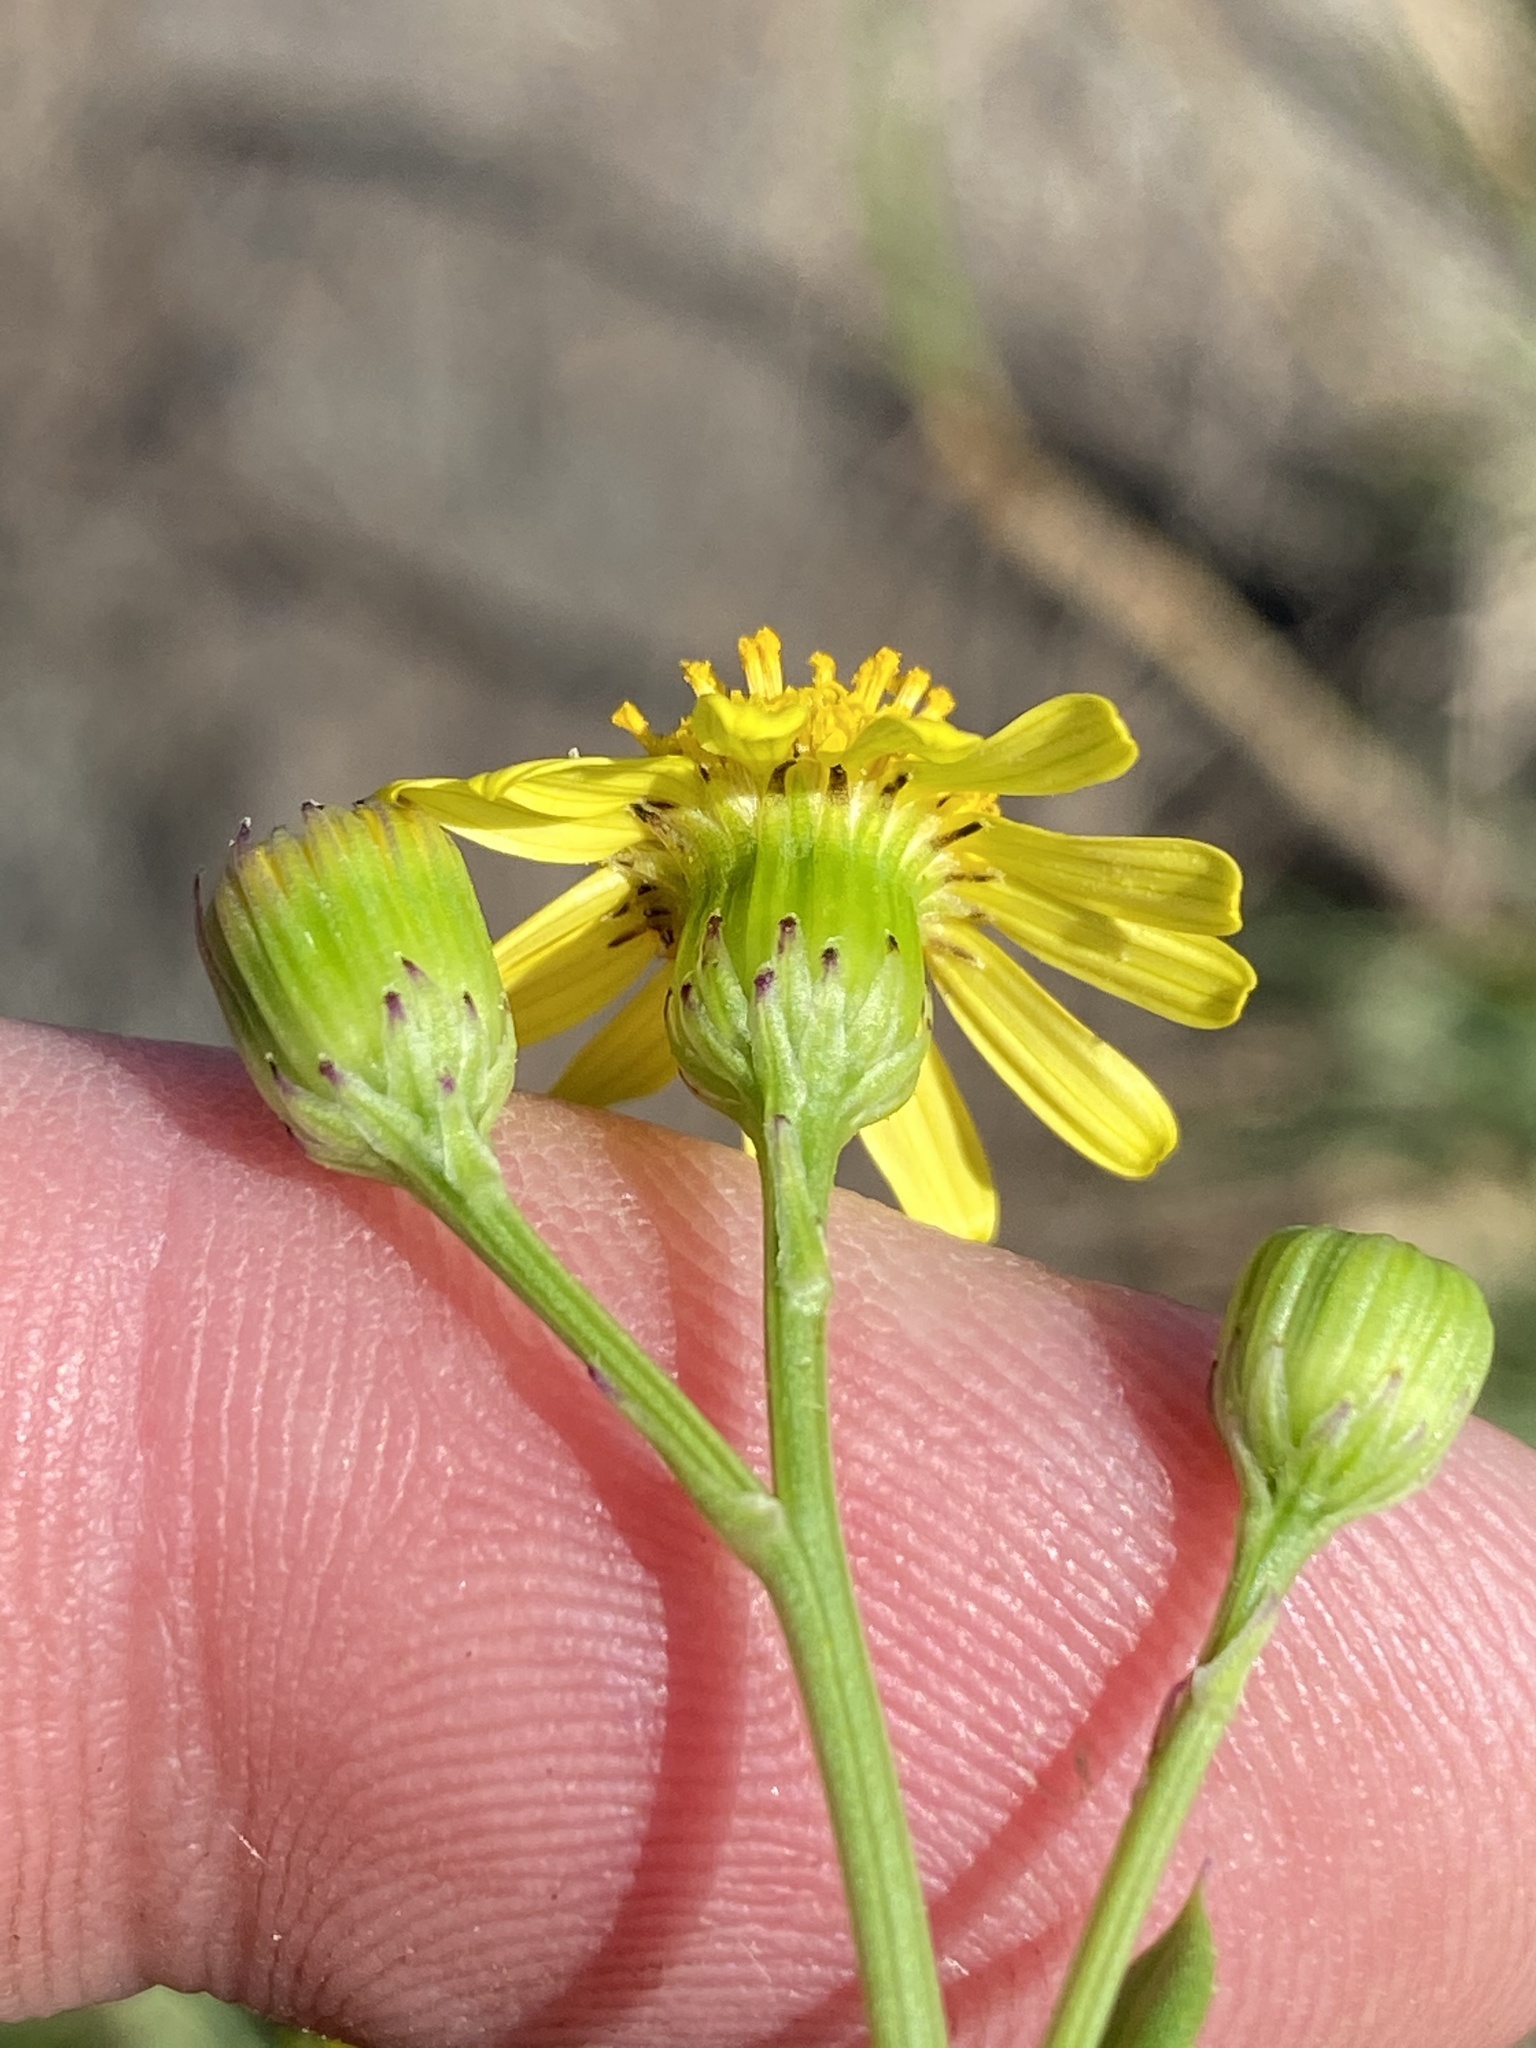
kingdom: Plantae
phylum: Tracheophyta
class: Magnoliopsida
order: Asterales
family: Asteraceae
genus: Senecio
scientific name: Senecio litorosus
